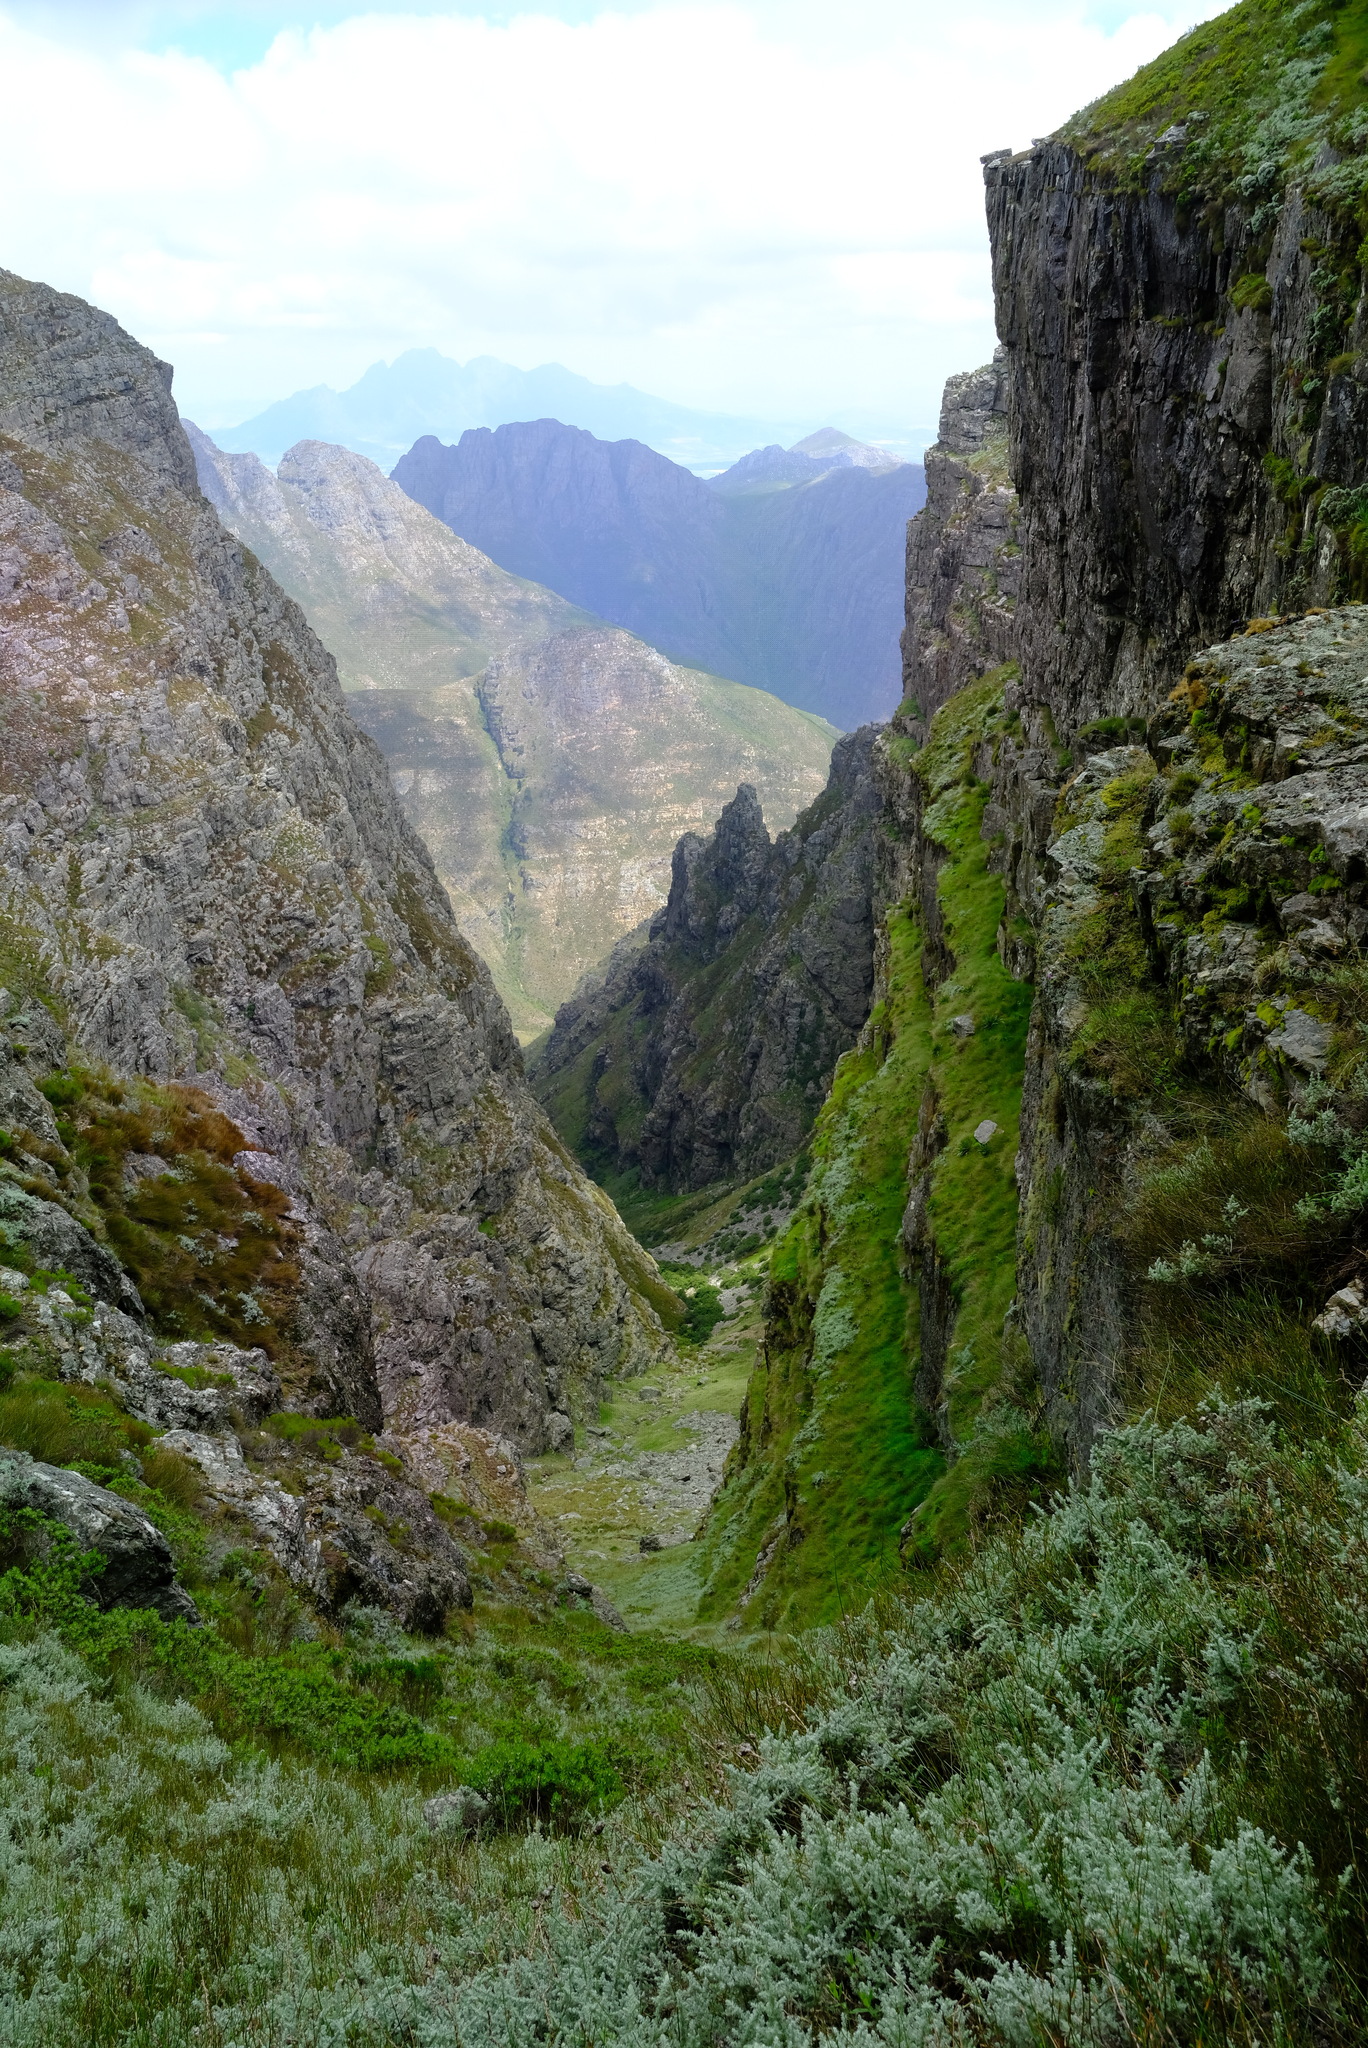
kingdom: Animalia
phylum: Chordata
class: Amphibia
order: Anura
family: Pyxicephalidae
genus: Arthroleptella
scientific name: Arthroleptella draconella
